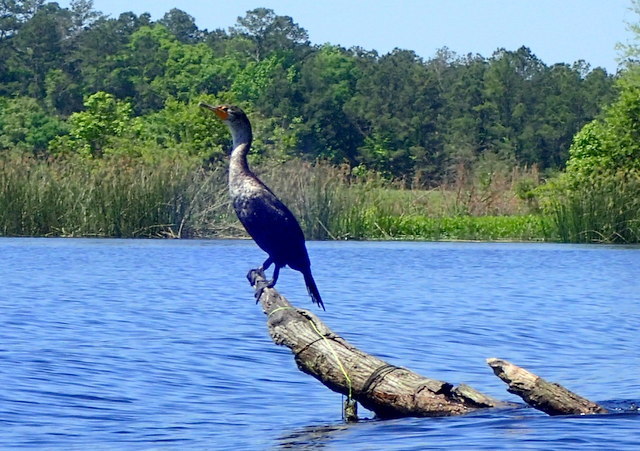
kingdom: Animalia
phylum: Chordata
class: Aves
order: Suliformes
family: Phalacrocoracidae
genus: Phalacrocorax
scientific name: Phalacrocorax auritus
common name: Double-crested cormorant
